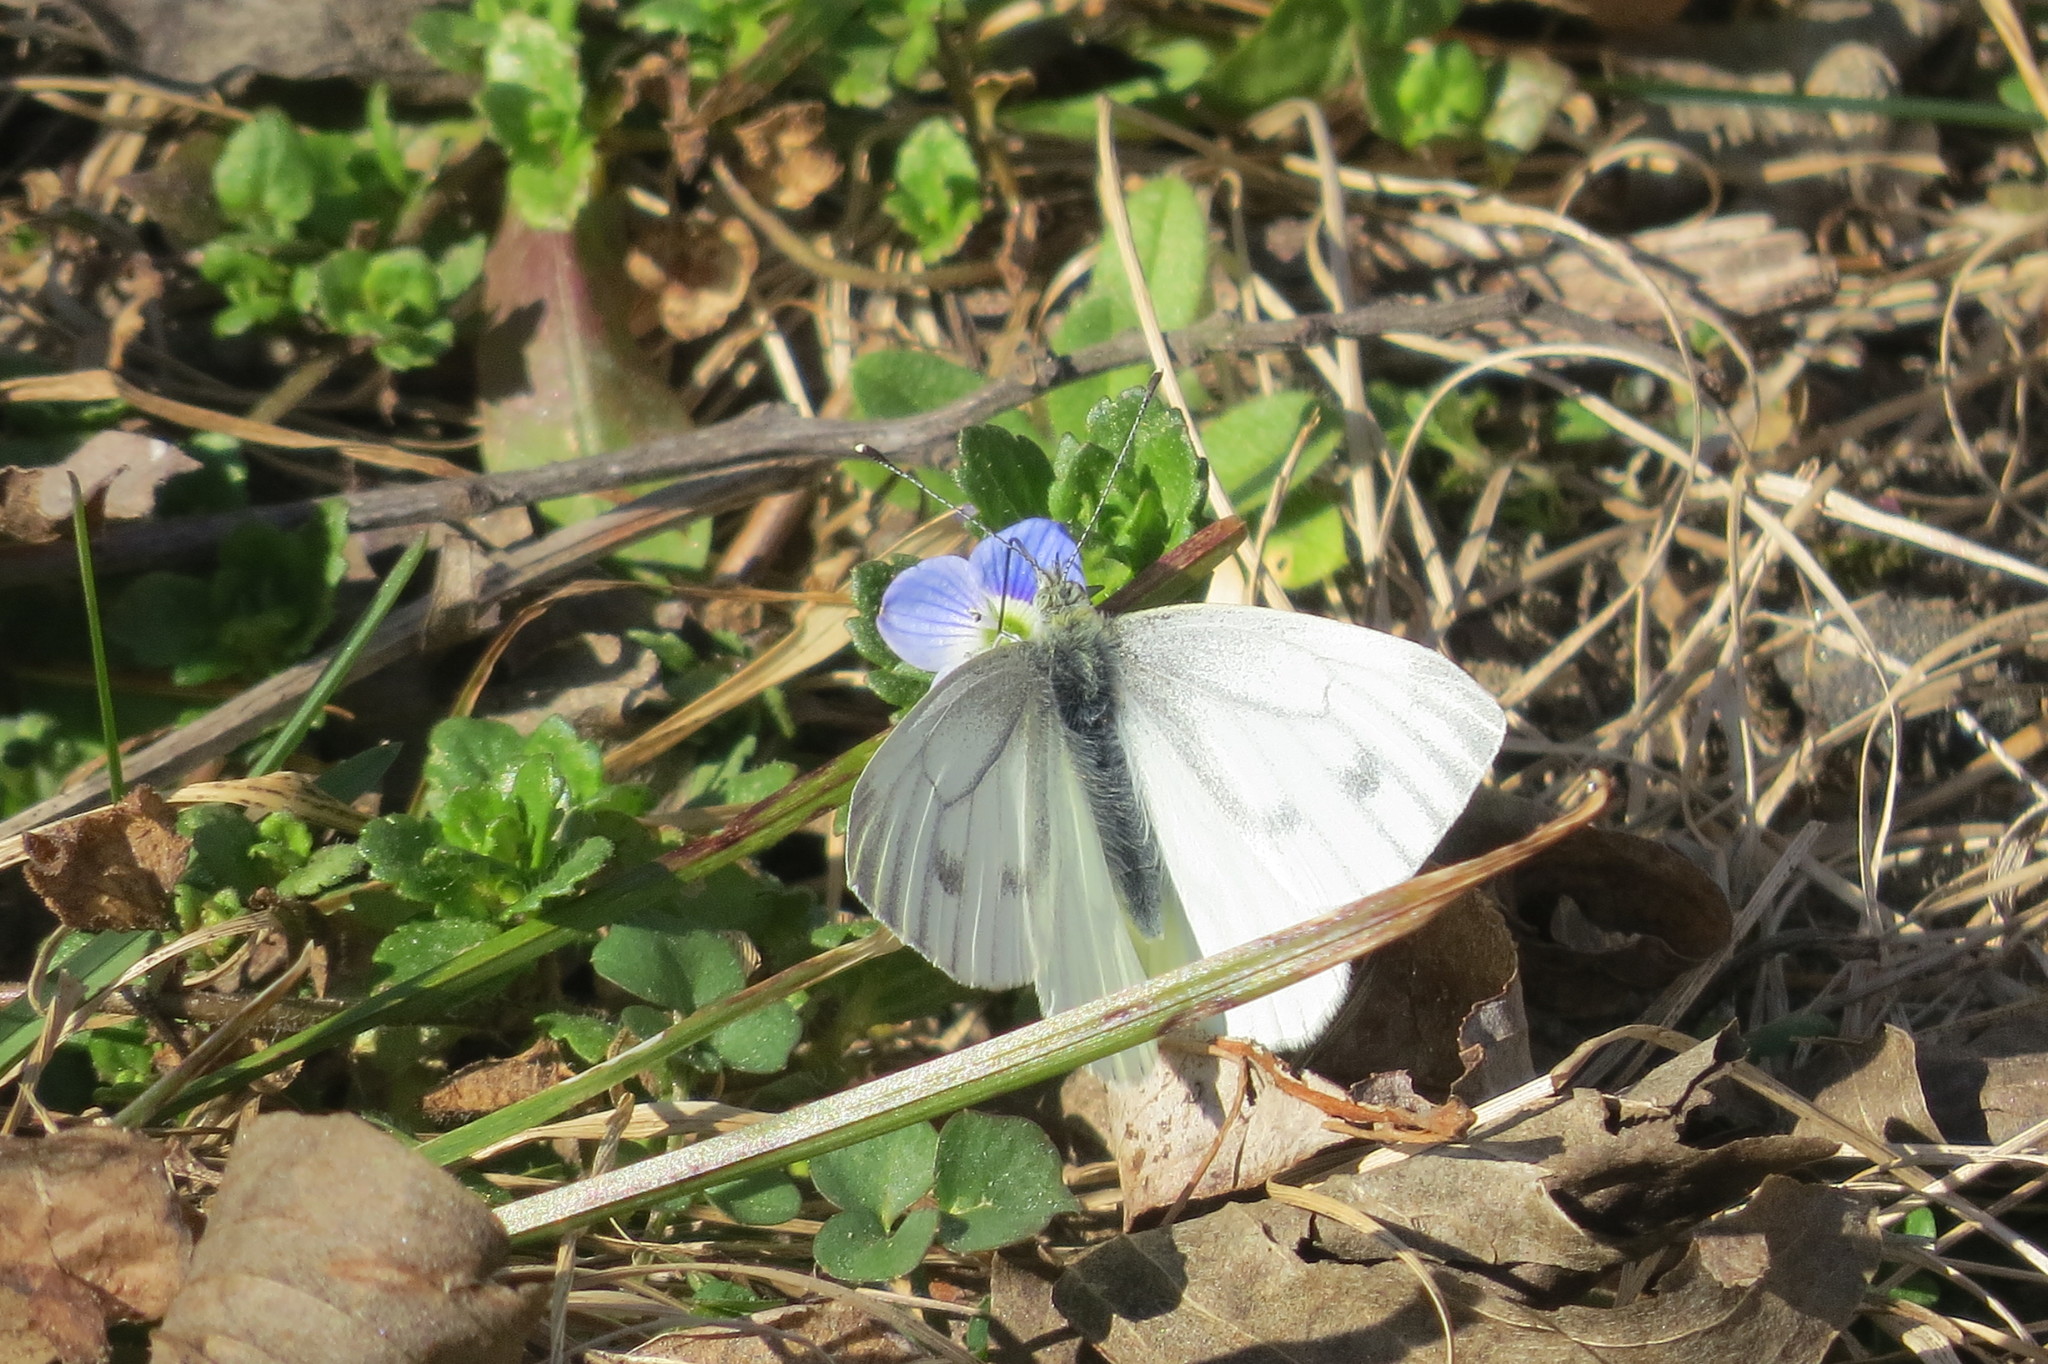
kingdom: Animalia
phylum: Arthropoda
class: Insecta
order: Lepidoptera
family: Pieridae
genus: Pieris
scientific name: Pieris napi
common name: Green-veined white
